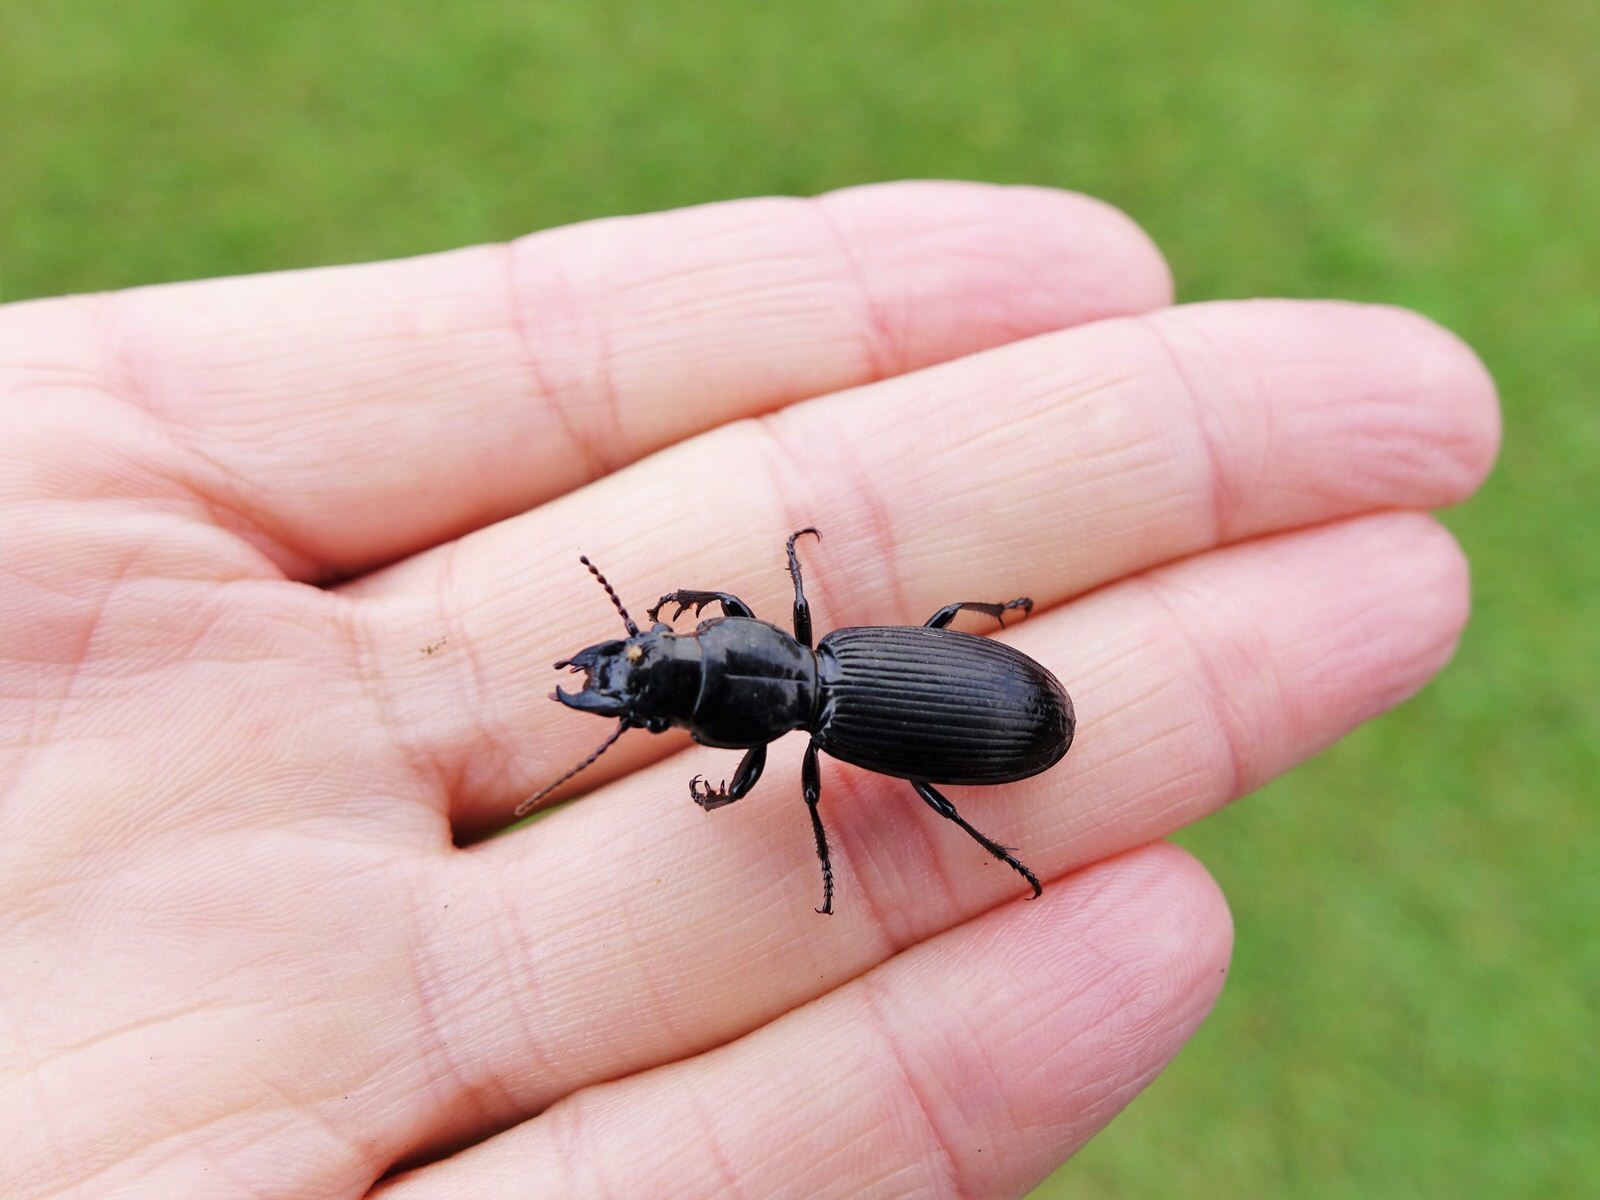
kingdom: Animalia
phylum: Arthropoda
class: Insecta
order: Coleoptera
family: Carabidae
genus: Mecodema
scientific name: Mecodema spiniferum
